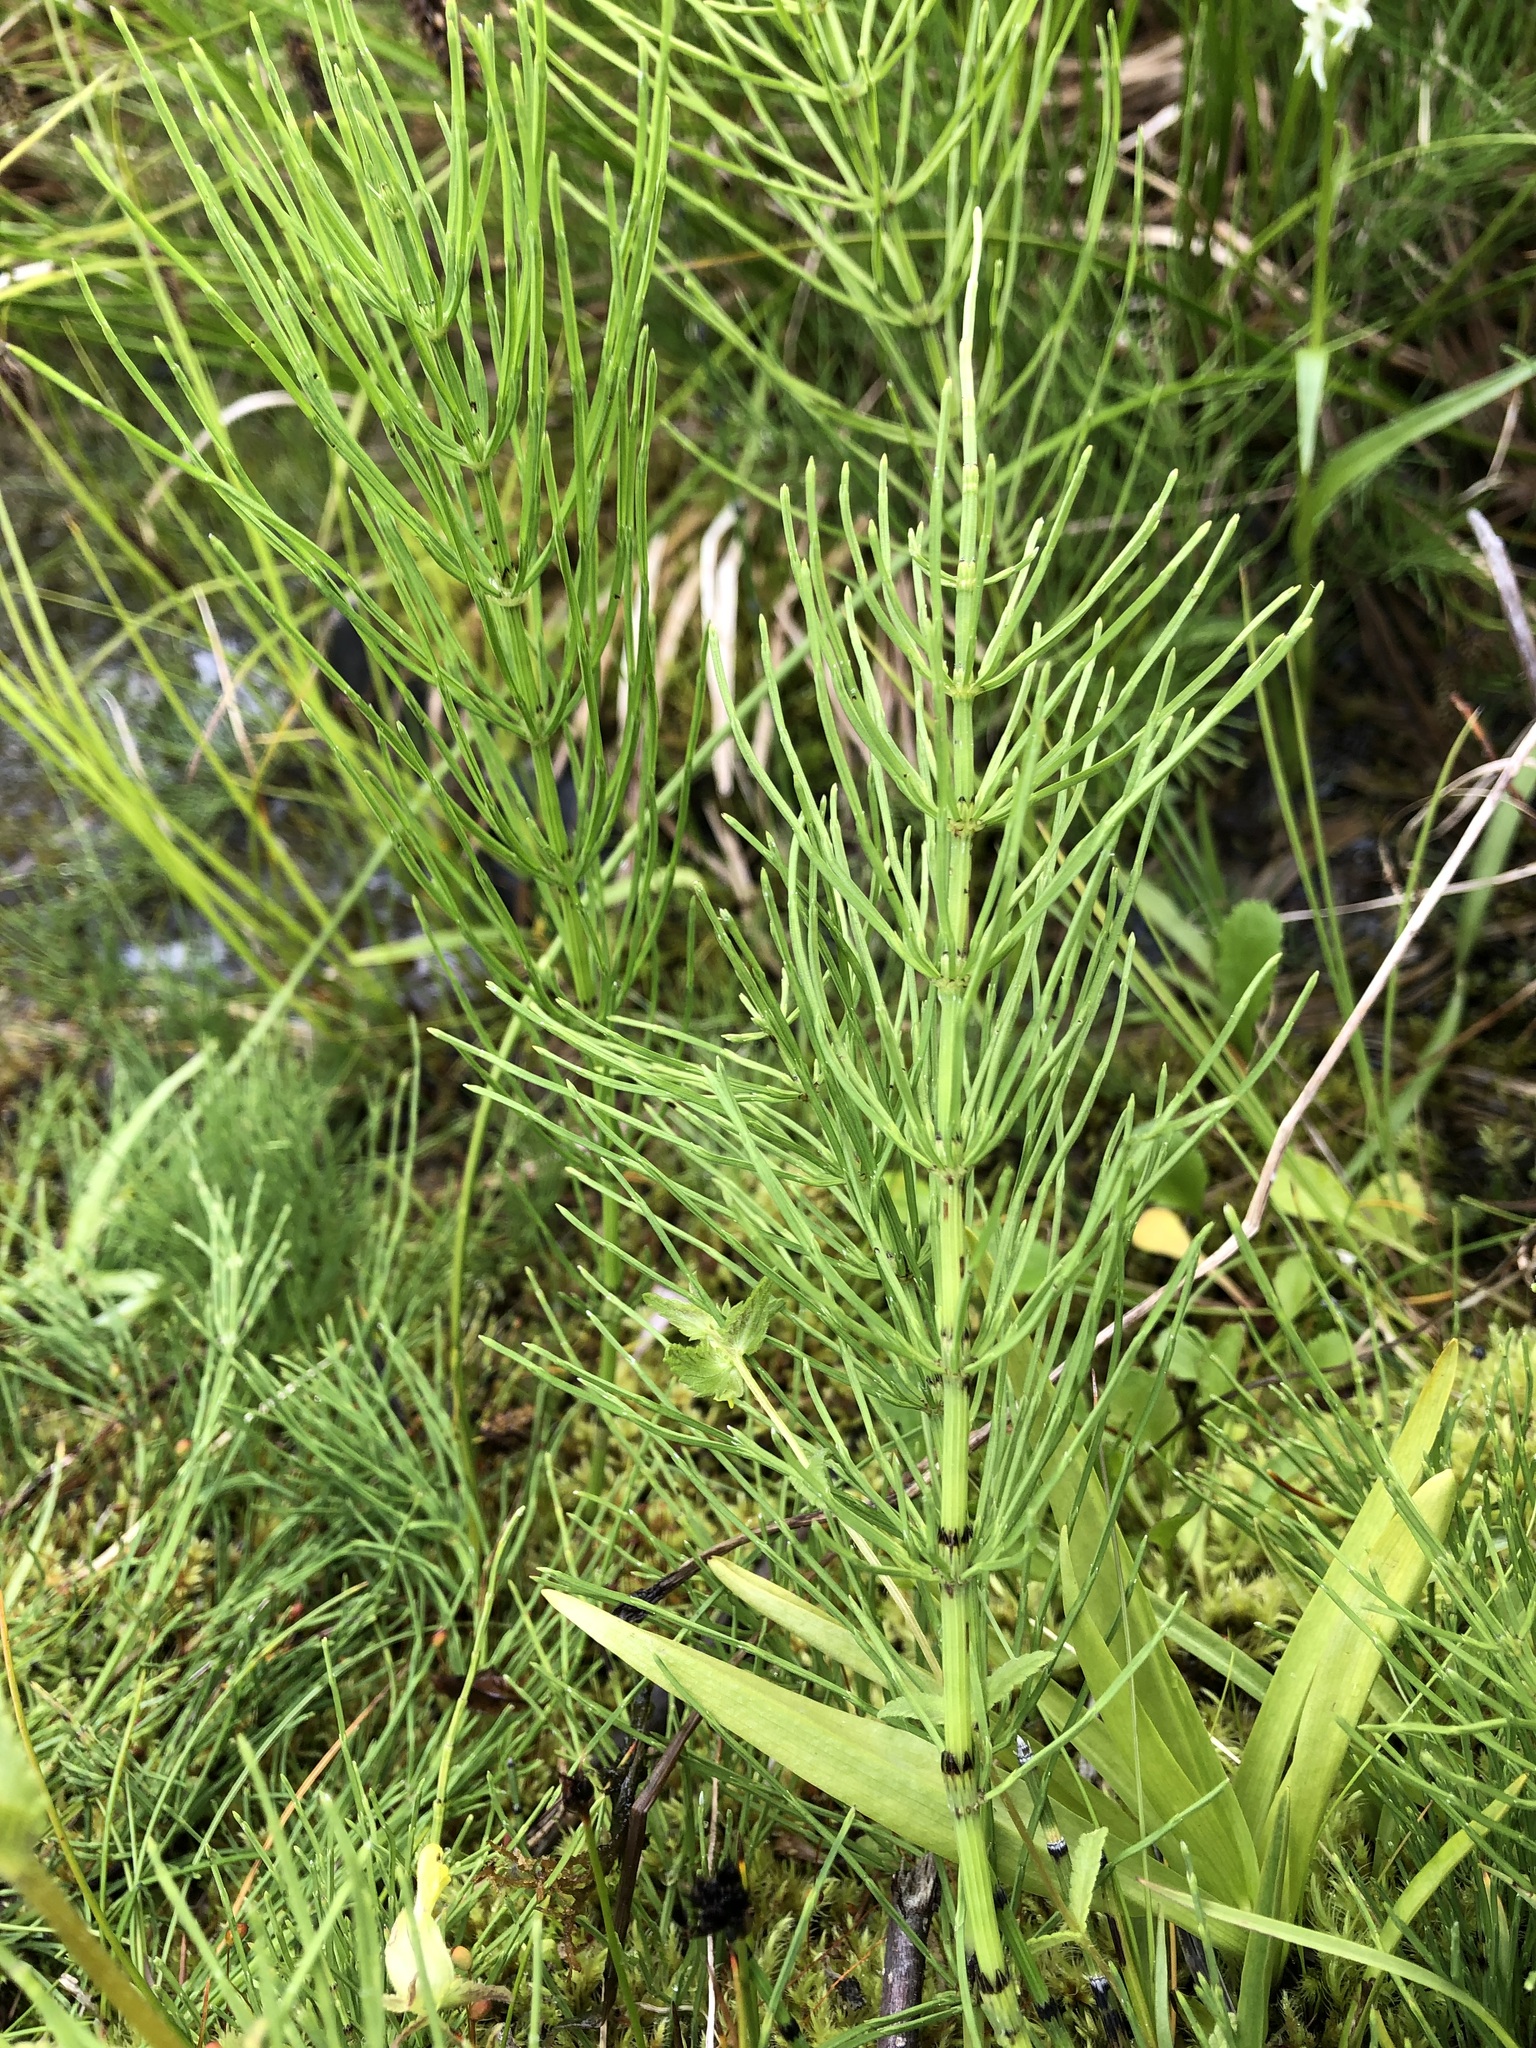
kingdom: Plantae
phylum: Tracheophyta
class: Polypodiopsida
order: Equisetales
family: Equisetaceae
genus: Equisetum
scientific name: Equisetum arvense
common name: Field horsetail
